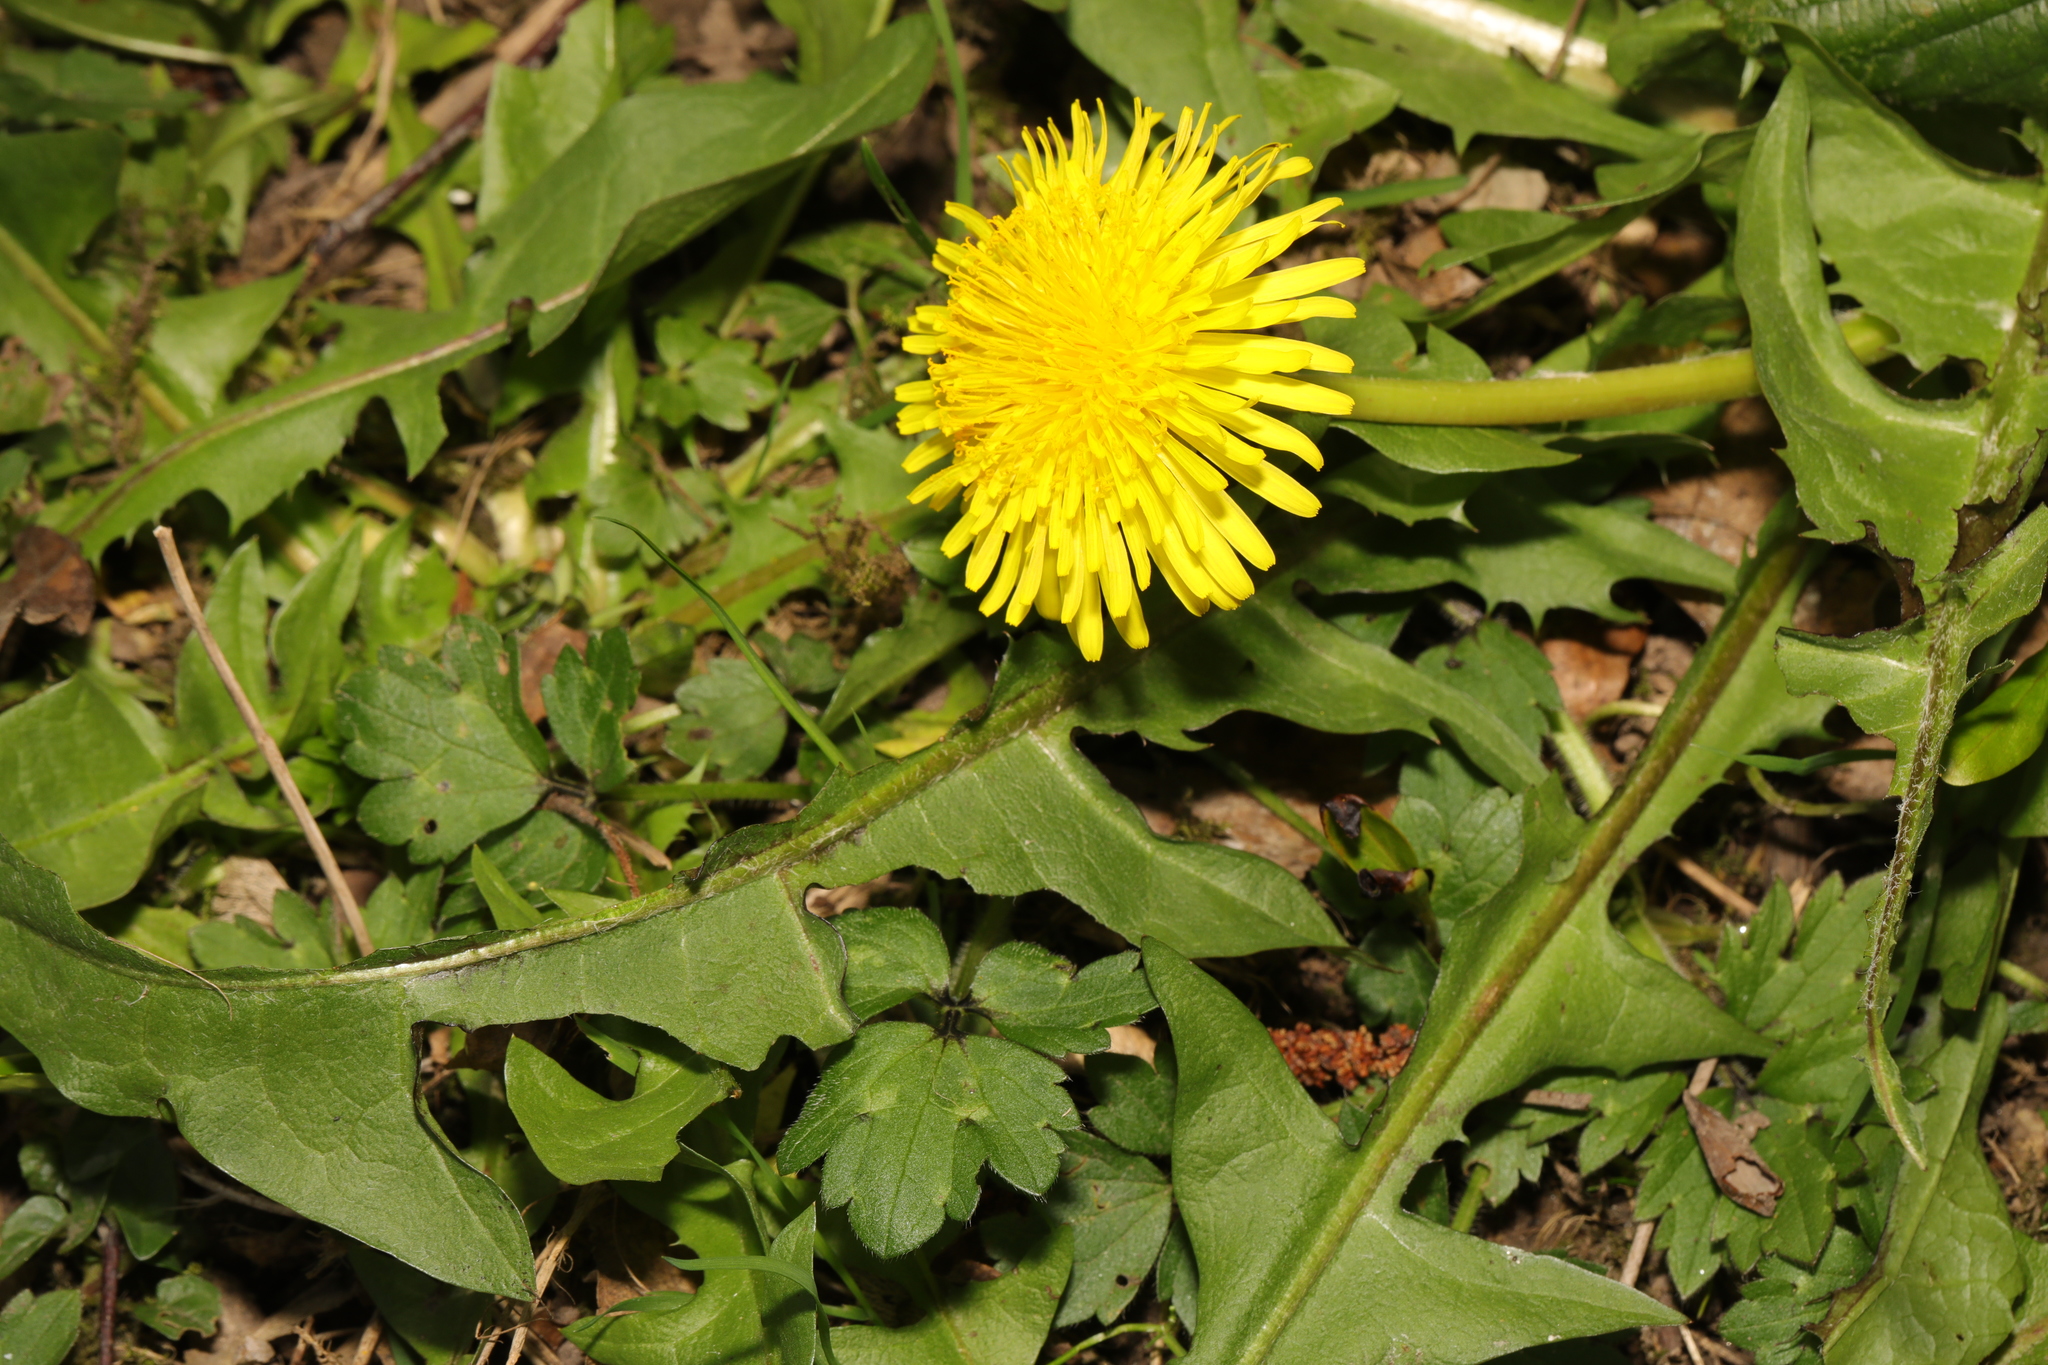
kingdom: Plantae
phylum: Tracheophyta
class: Magnoliopsida
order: Asterales
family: Asteraceae
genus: Taraxacum
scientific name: Taraxacum officinale
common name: Common dandelion
